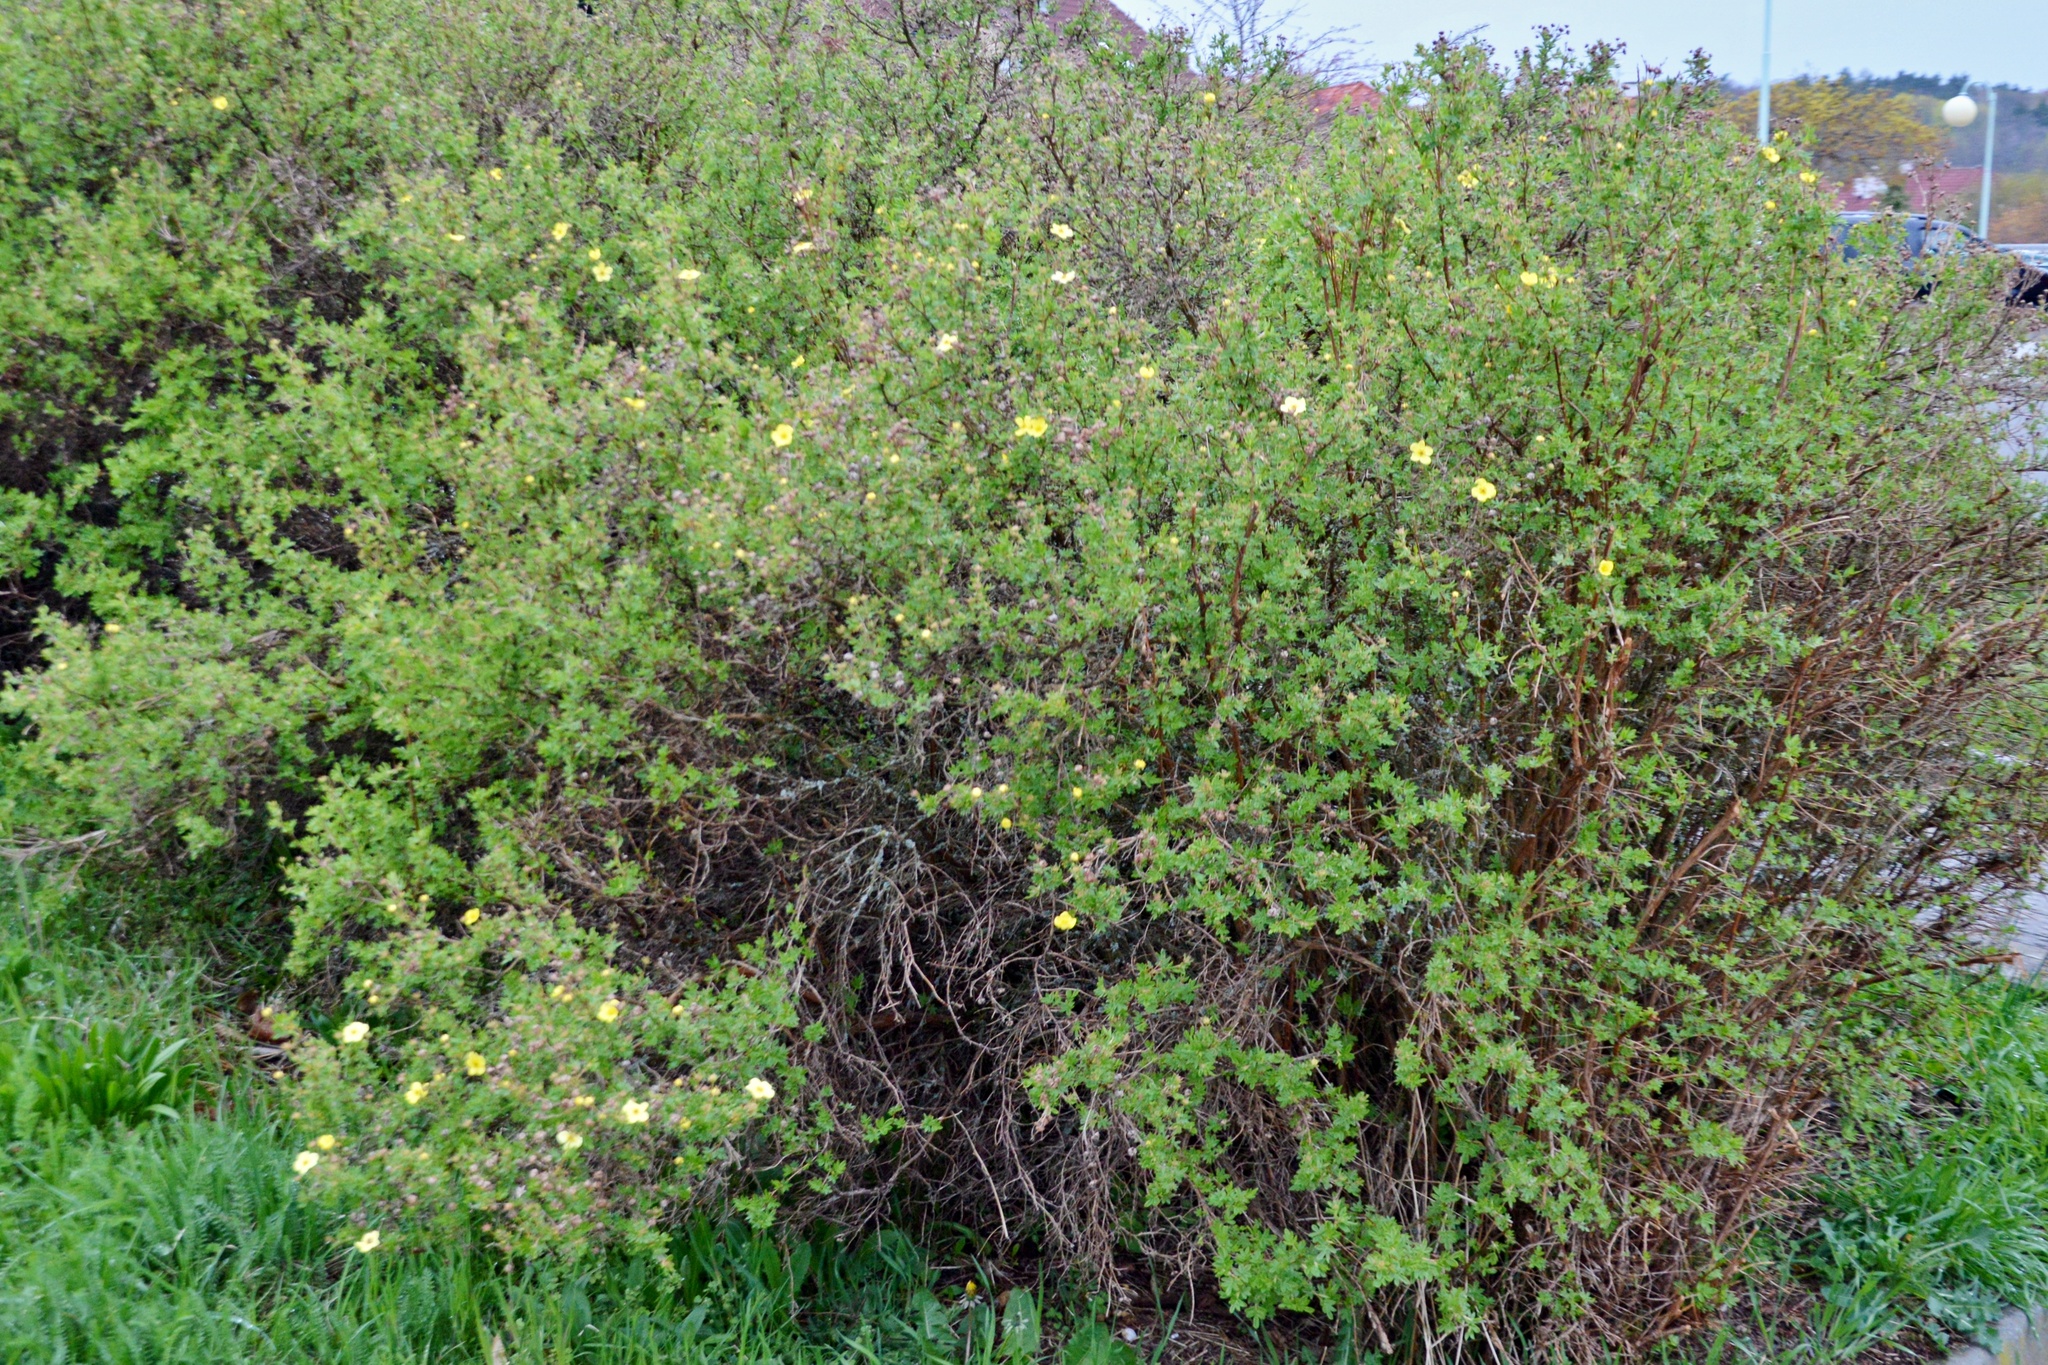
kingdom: Plantae
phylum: Tracheophyta
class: Magnoliopsida
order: Rosales
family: Rosaceae
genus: Dasiphora
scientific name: Dasiphora fruticosa
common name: Shrubby cinquefoil
